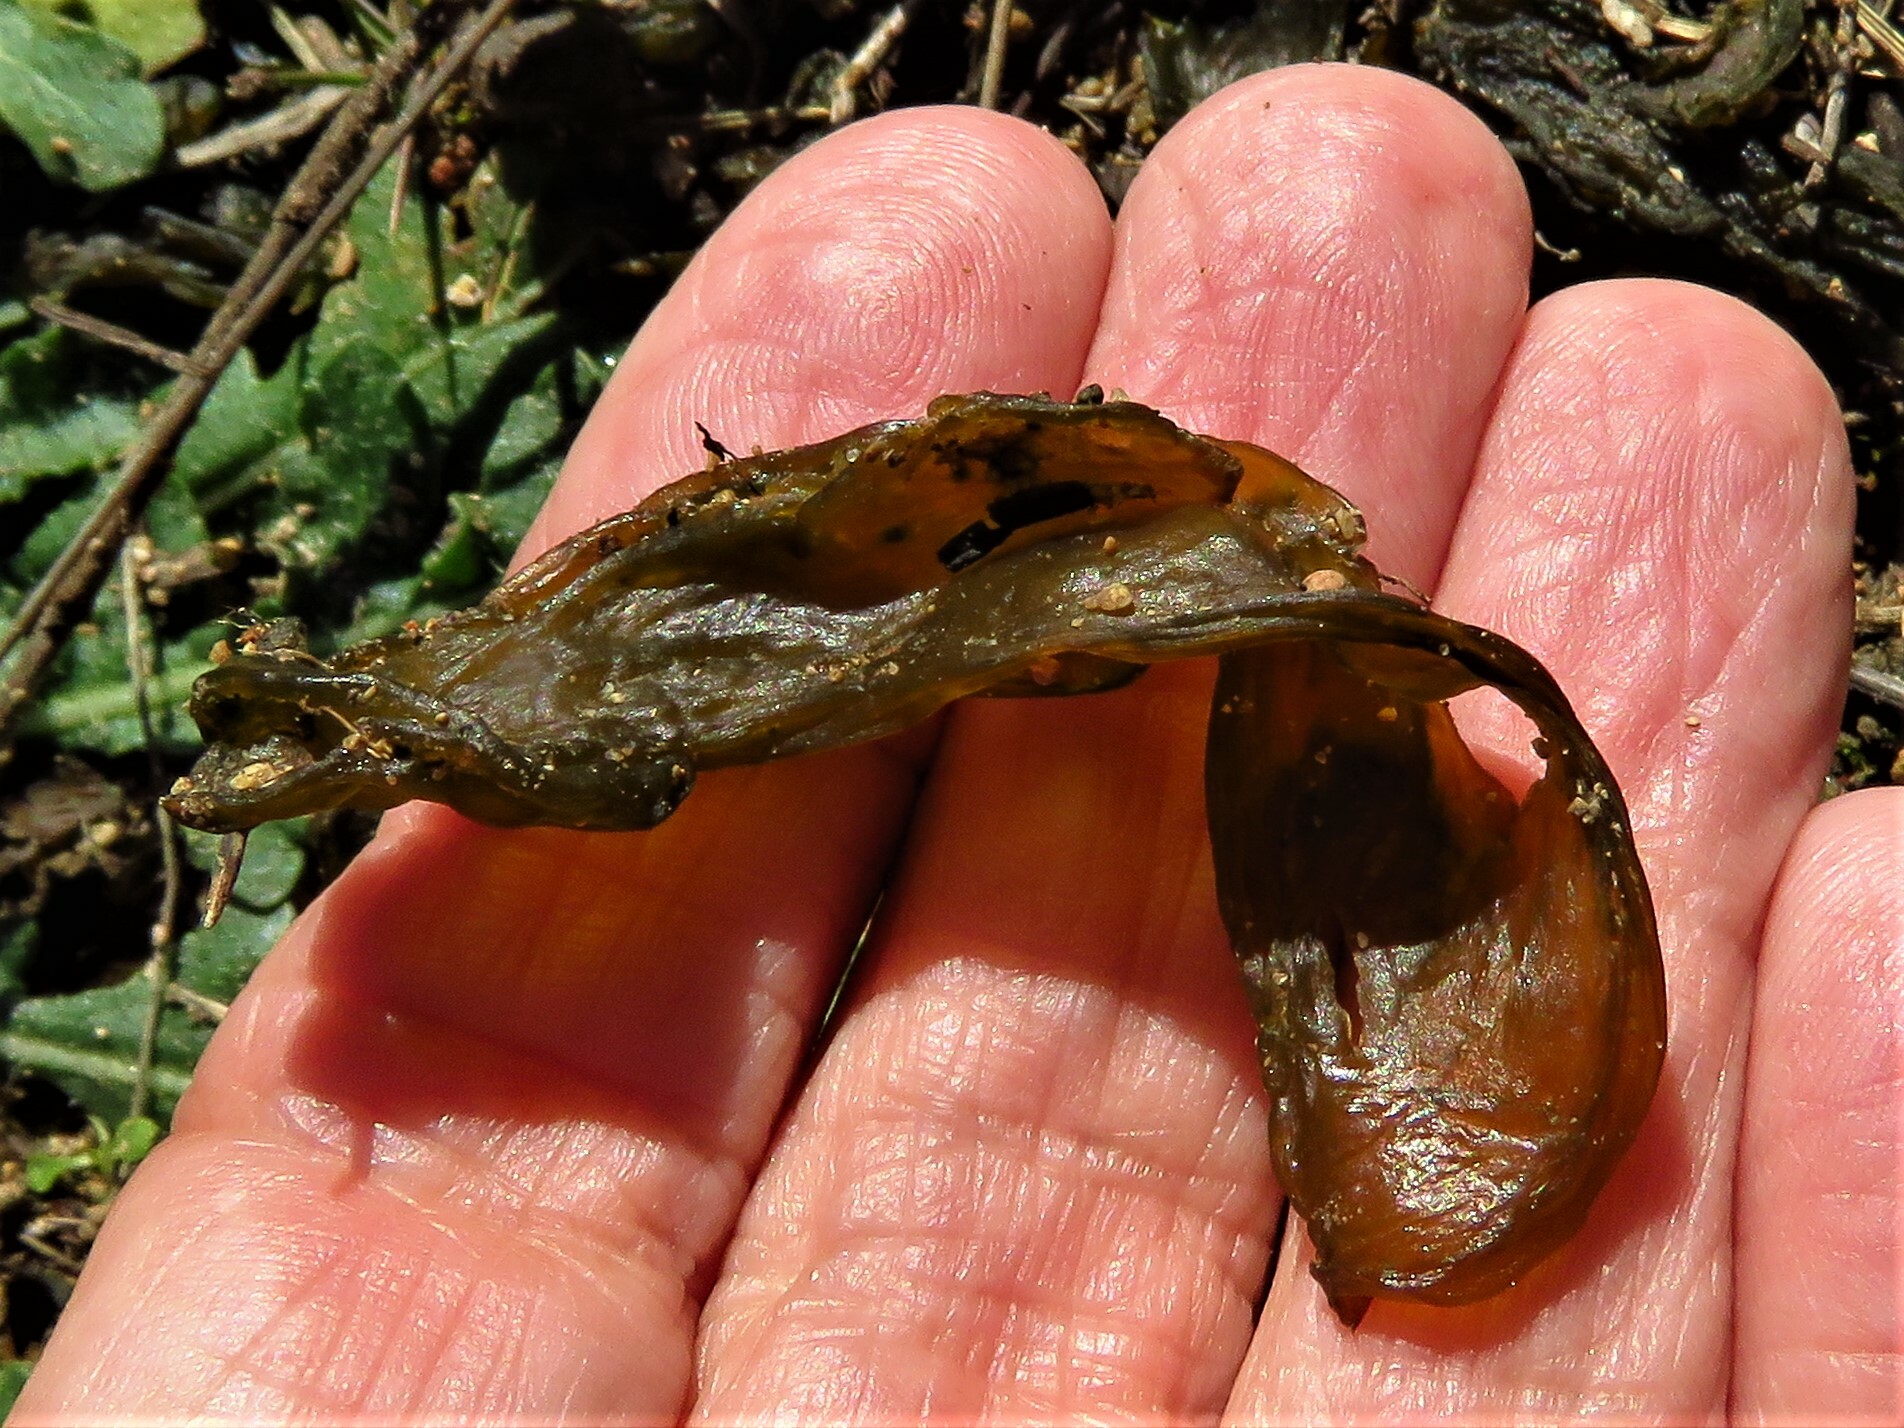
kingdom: Bacteria
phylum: Cyanobacteria
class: Cyanobacteriia
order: Cyanobacteriales
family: Nostocaceae
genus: Nostoc
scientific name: Nostoc commune
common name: Star jelly
